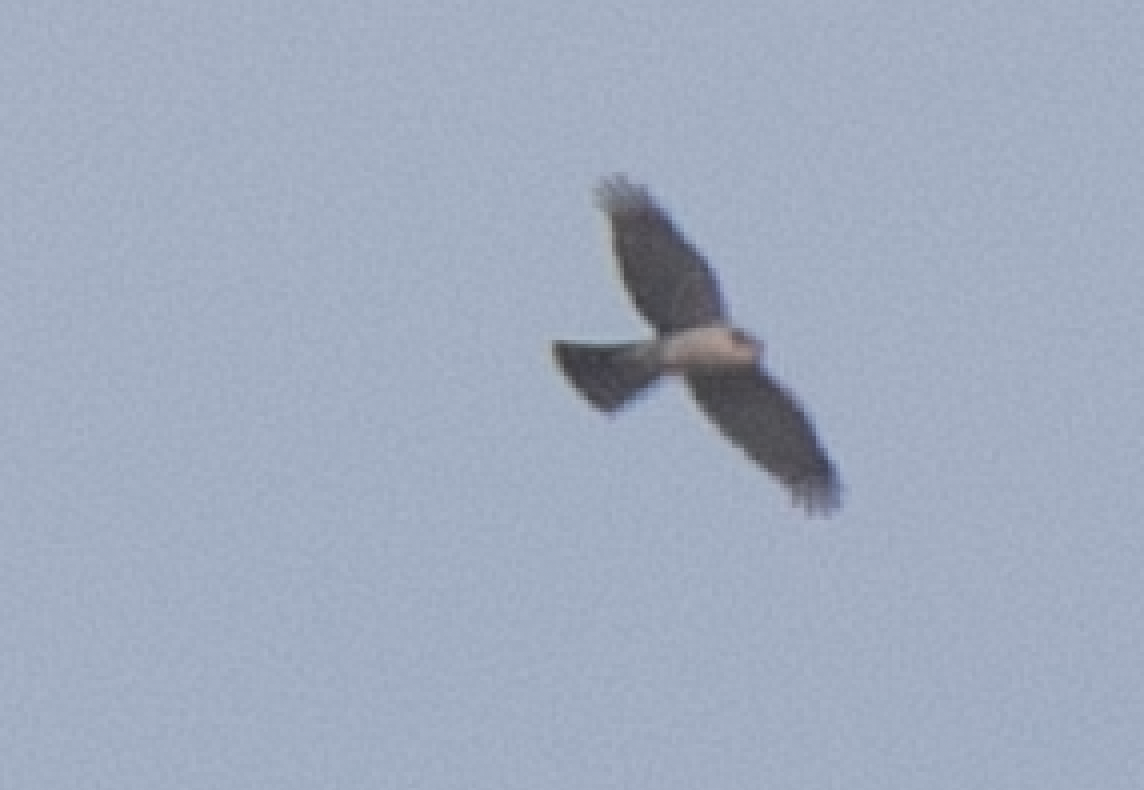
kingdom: Animalia
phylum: Chordata
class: Aves
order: Accipitriformes
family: Accipitridae
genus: Accipiter
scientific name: Accipiter nisus
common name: Eurasian sparrowhawk
